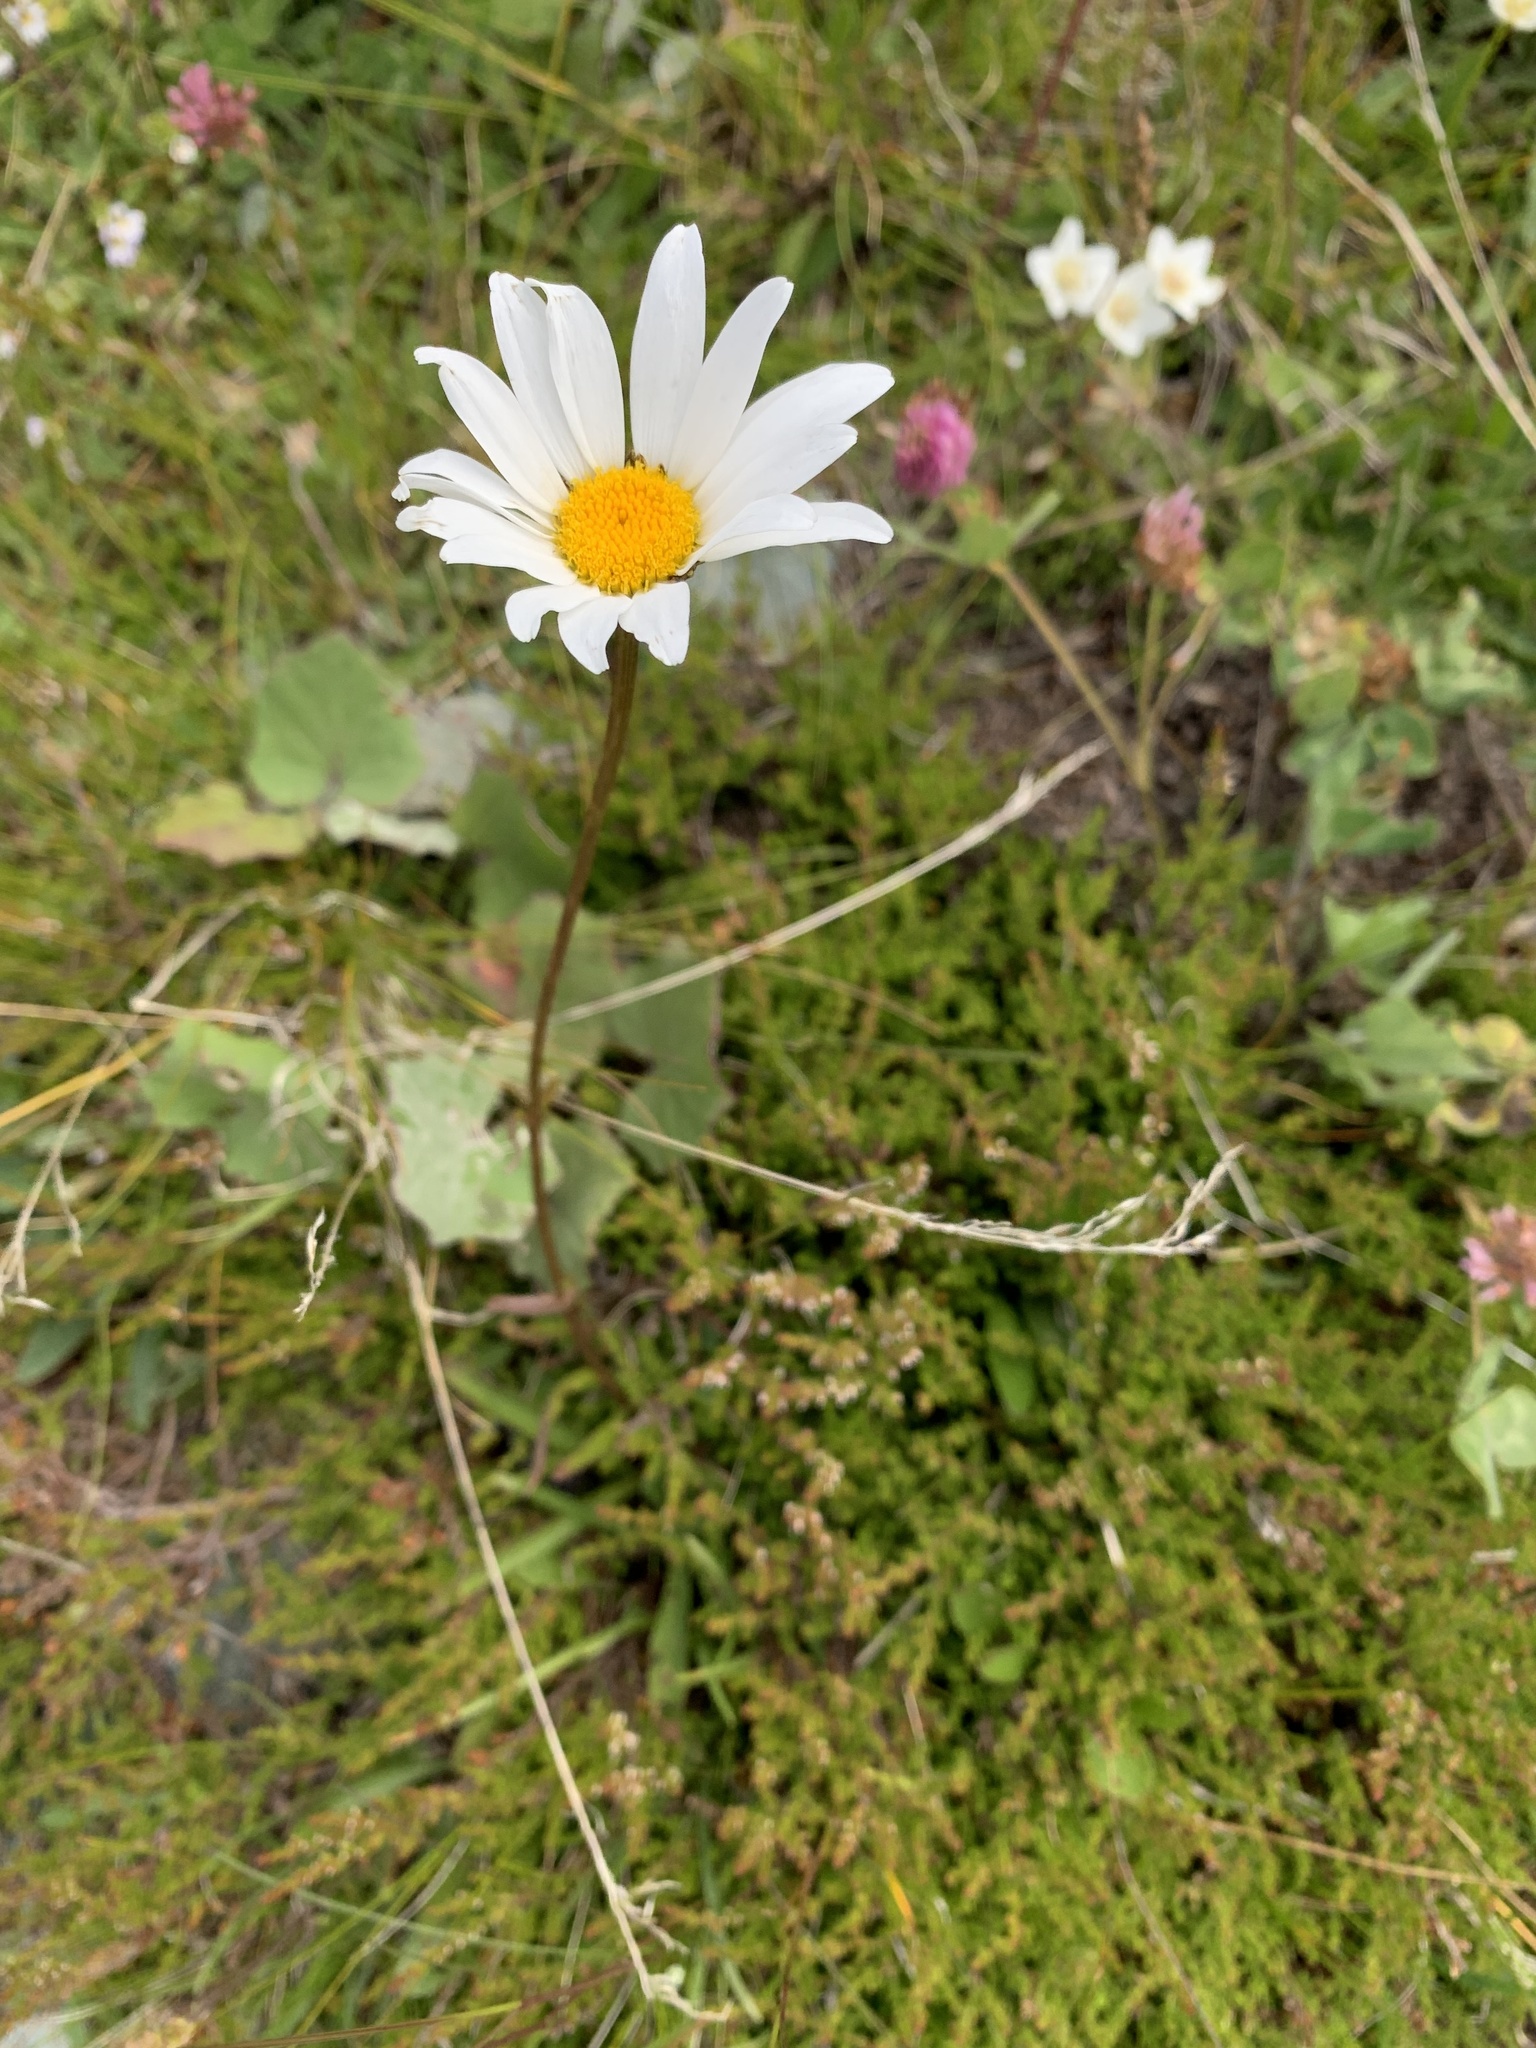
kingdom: Plantae
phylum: Tracheophyta
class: Magnoliopsida
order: Asterales
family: Asteraceae
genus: Leucanthemum
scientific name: Leucanthemum adustum
